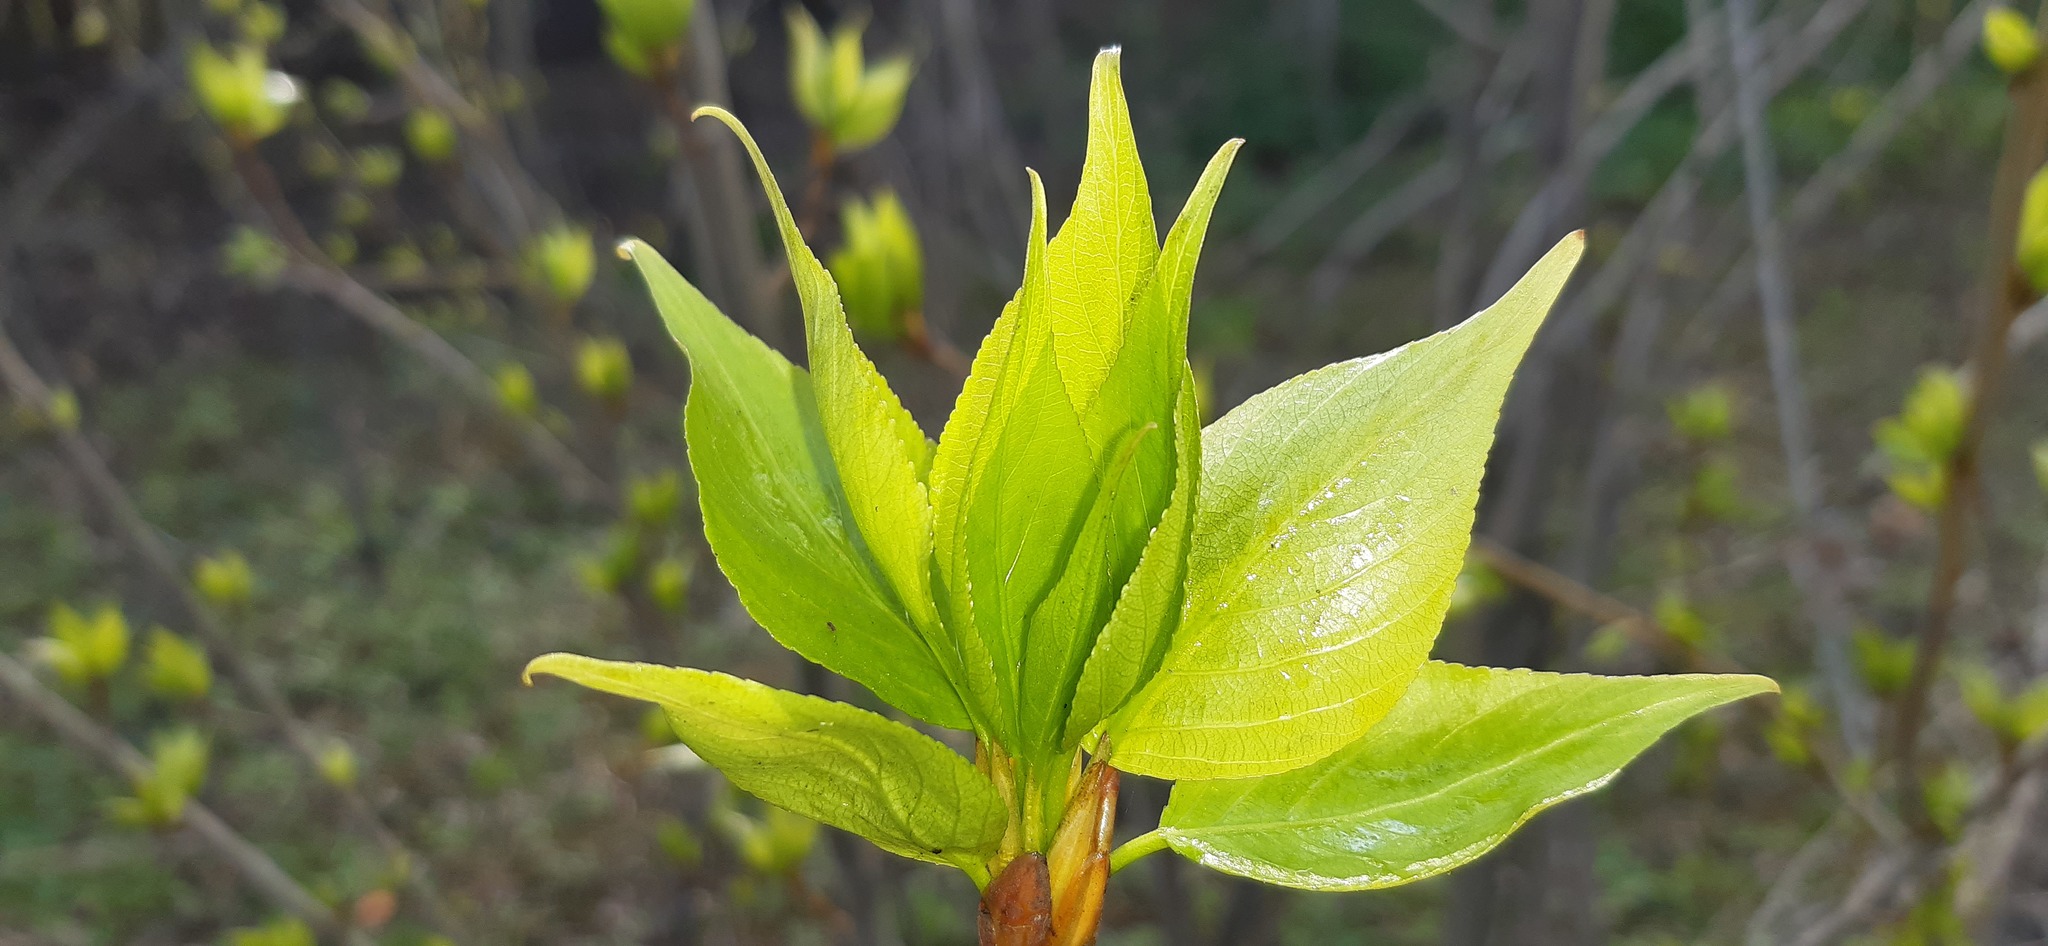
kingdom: Plantae
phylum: Tracheophyta
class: Magnoliopsida
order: Malpighiales
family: Salicaceae
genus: Populus
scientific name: Populus
